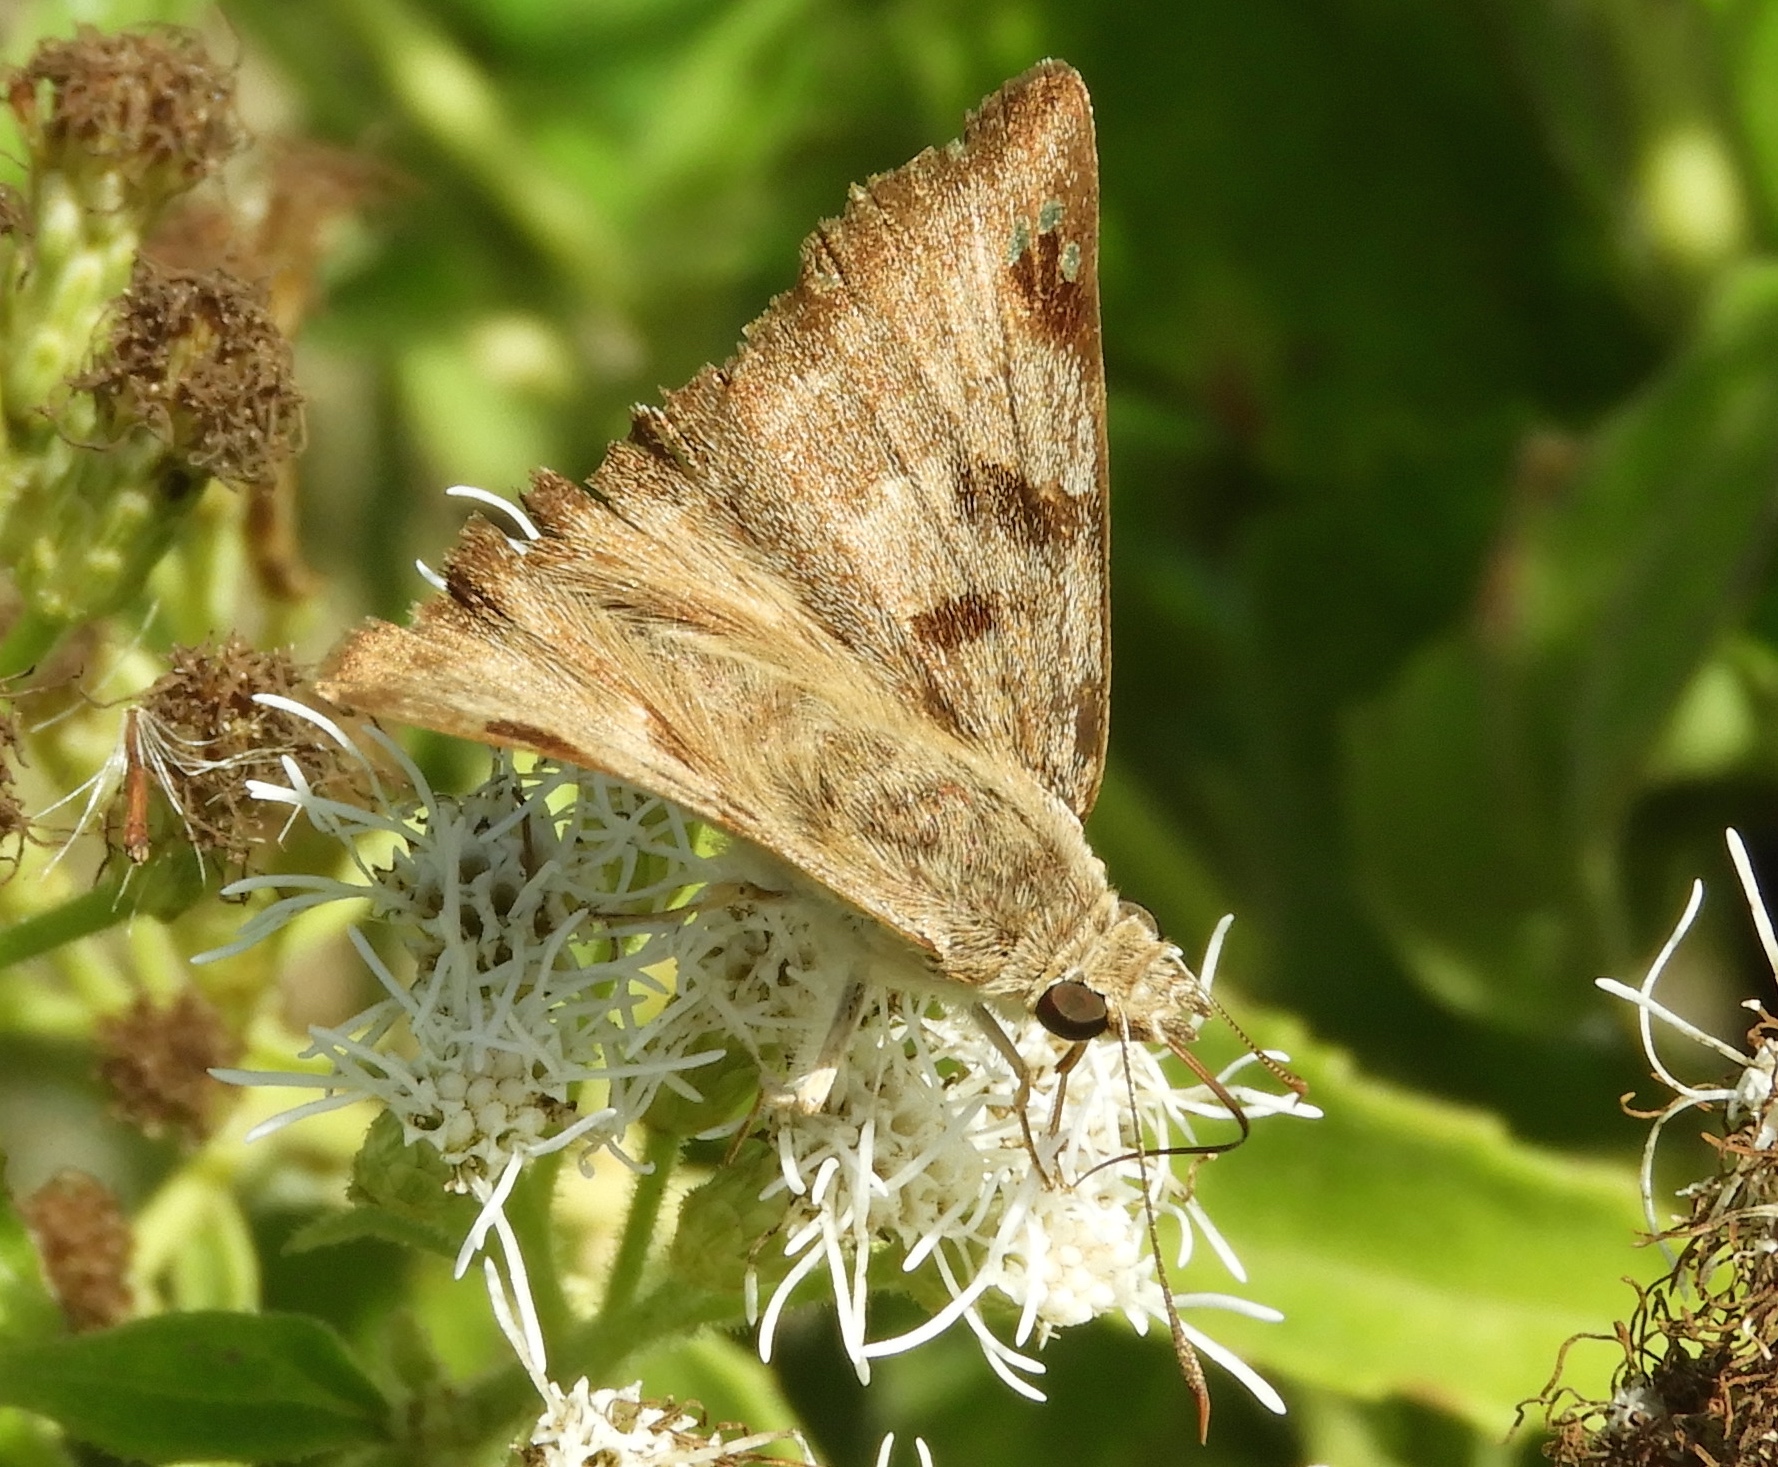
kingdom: Animalia
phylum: Arthropoda
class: Insecta
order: Lepidoptera
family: Hesperiidae
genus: Arteurotia
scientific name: Arteurotia tractipennis
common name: Starred skipper
